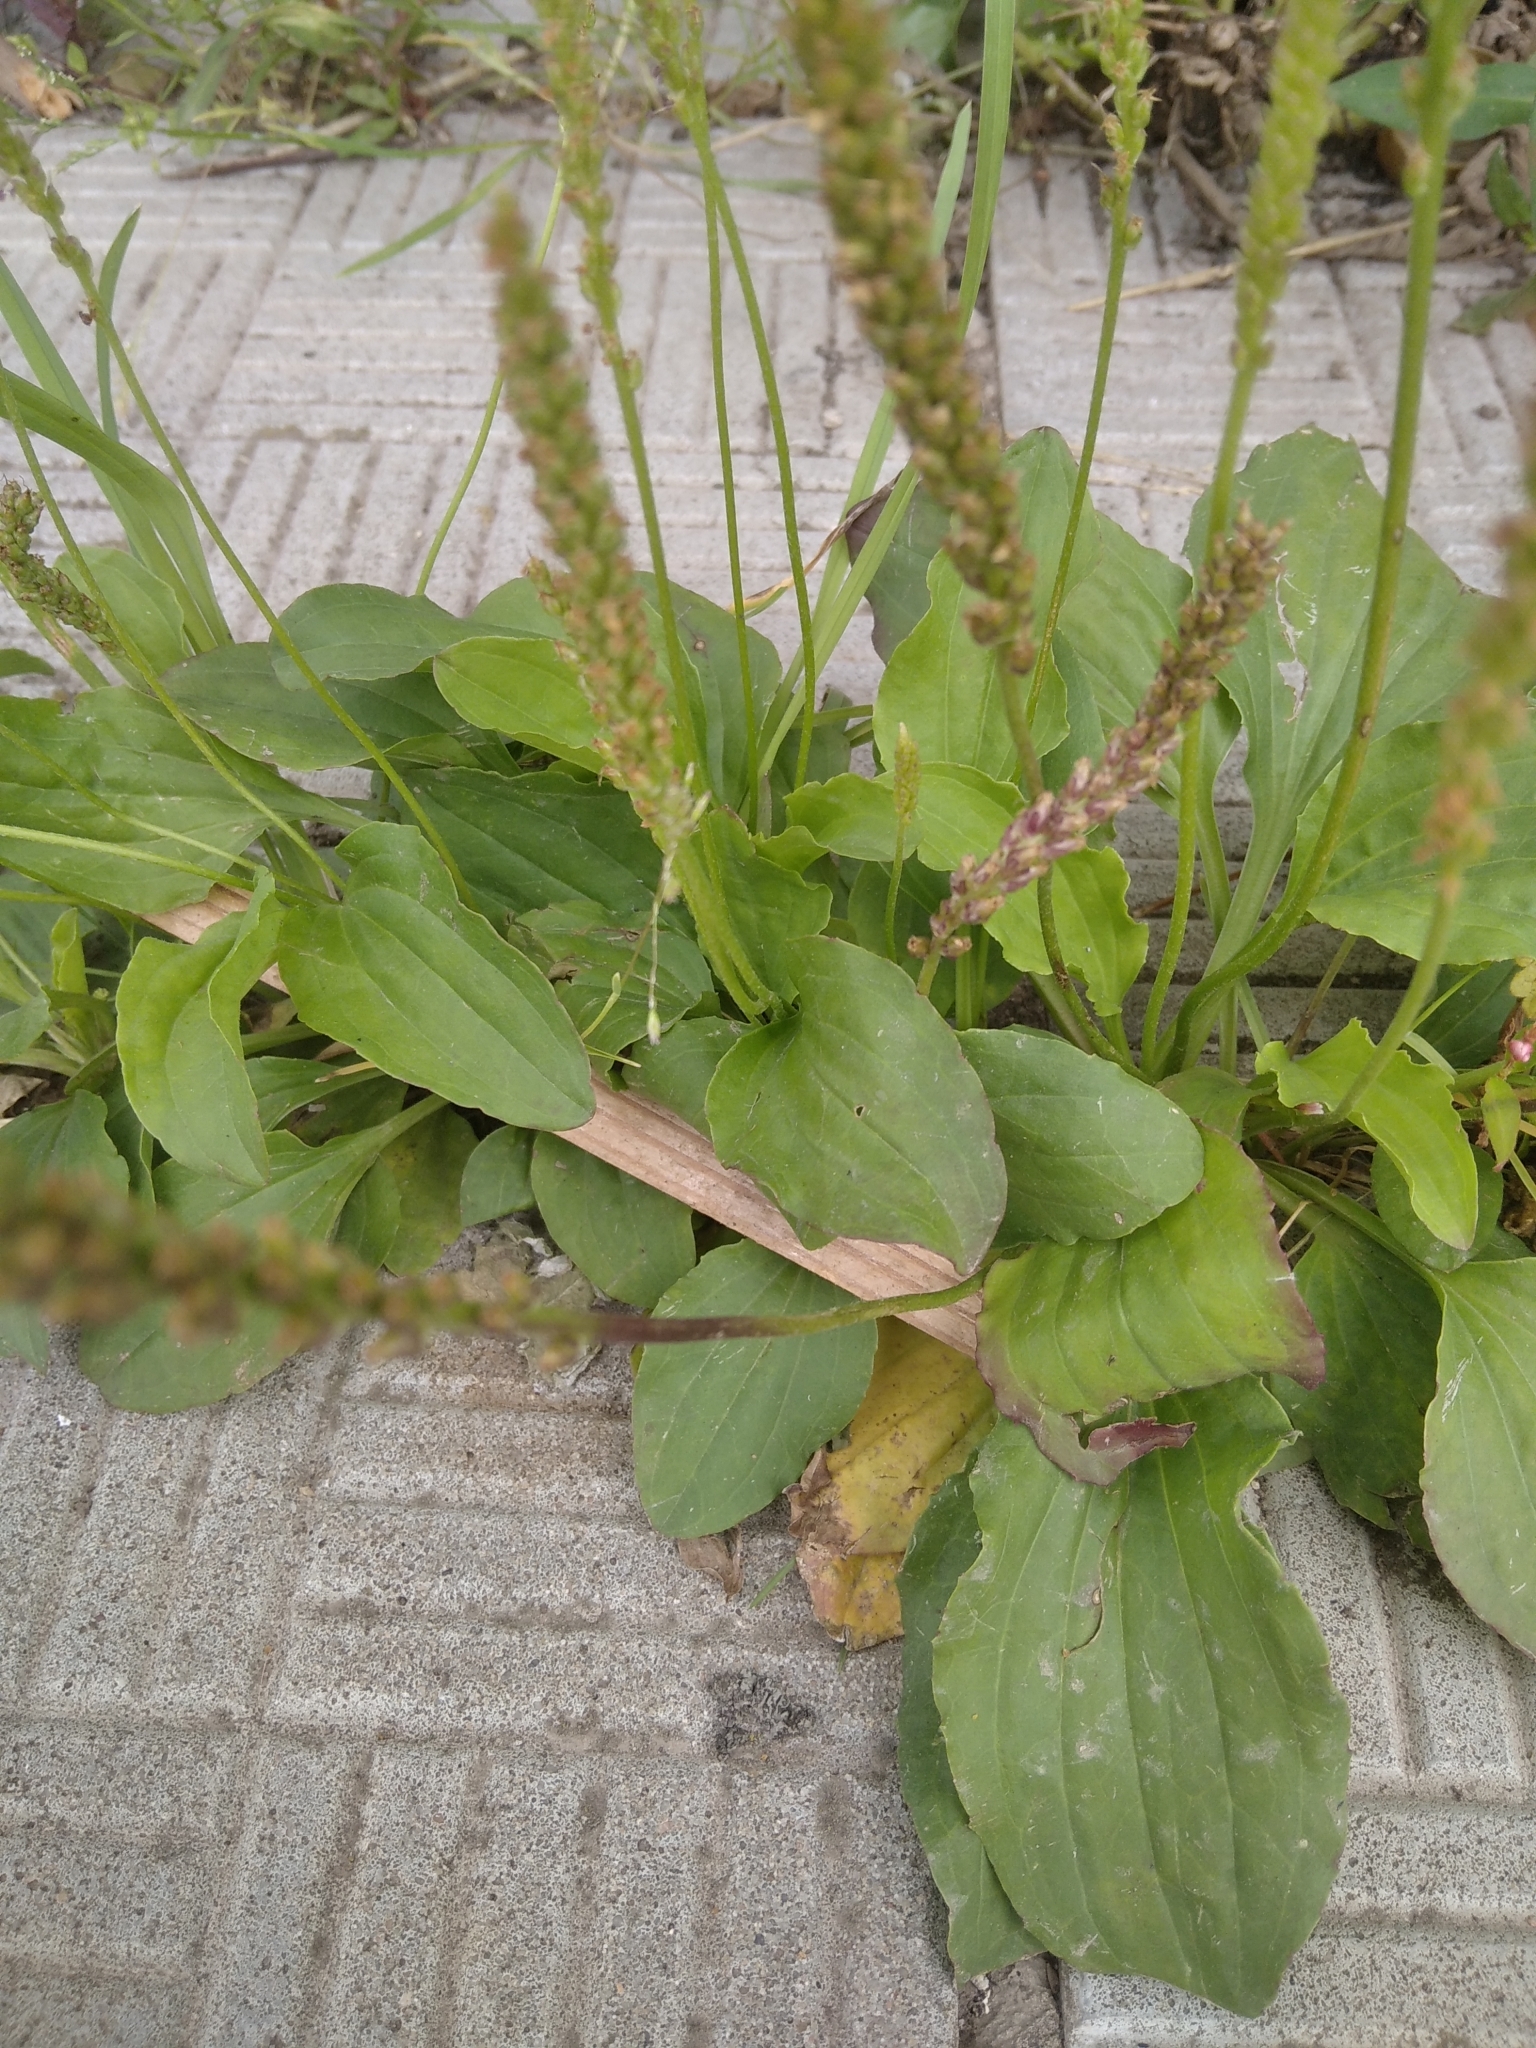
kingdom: Plantae
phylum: Tracheophyta
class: Magnoliopsida
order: Lamiales
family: Plantaginaceae
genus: Plantago
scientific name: Plantago major
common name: Common plantain
